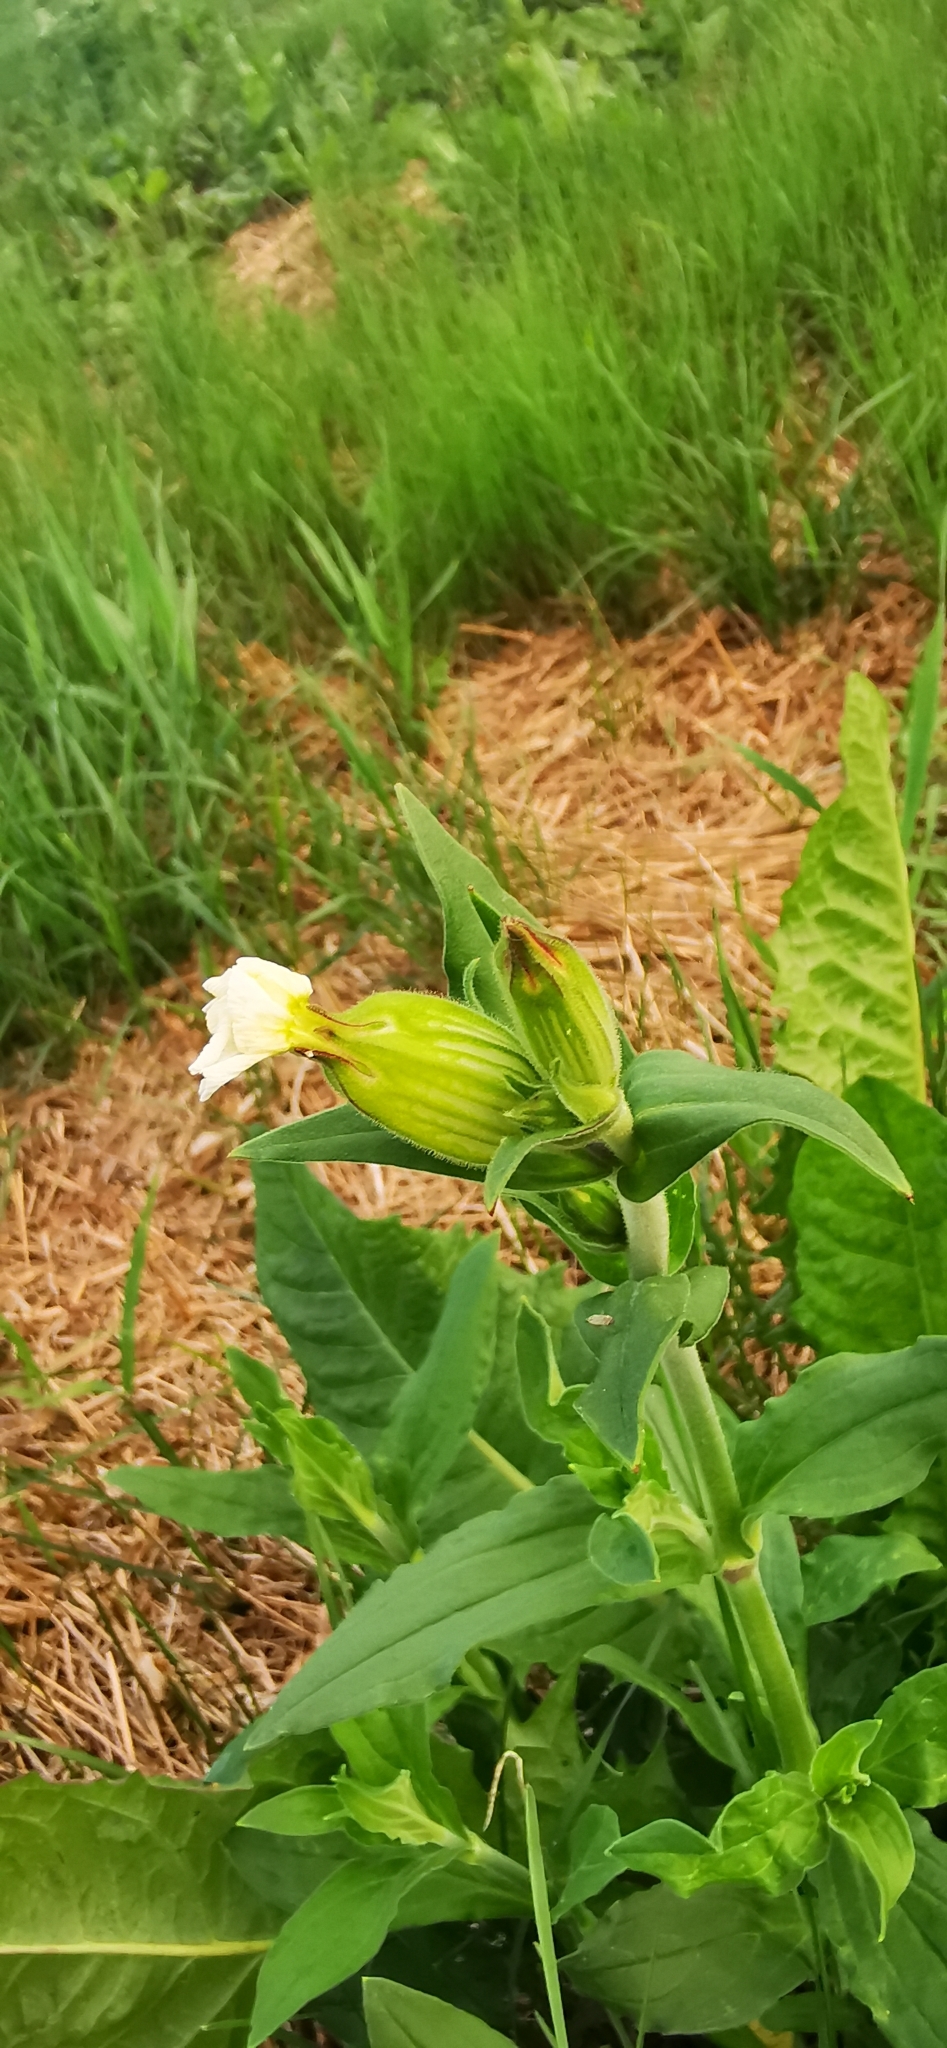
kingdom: Plantae
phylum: Tracheophyta
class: Magnoliopsida
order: Caryophyllales
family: Caryophyllaceae
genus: Silene
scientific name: Silene latifolia
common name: White campion
